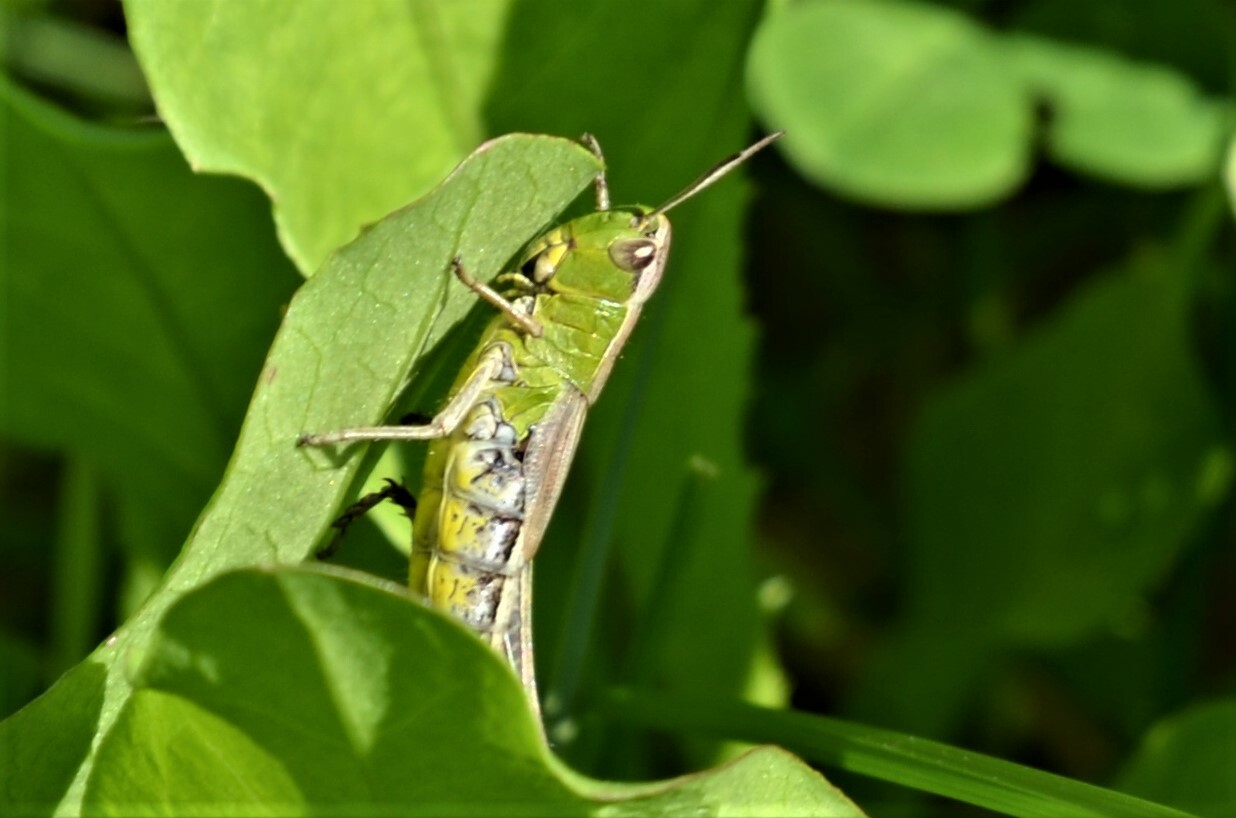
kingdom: Animalia
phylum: Arthropoda
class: Insecta
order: Orthoptera
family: Acrididae
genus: Pseudochorthippus
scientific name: Pseudochorthippus parallelus
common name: Meadow grasshopper
